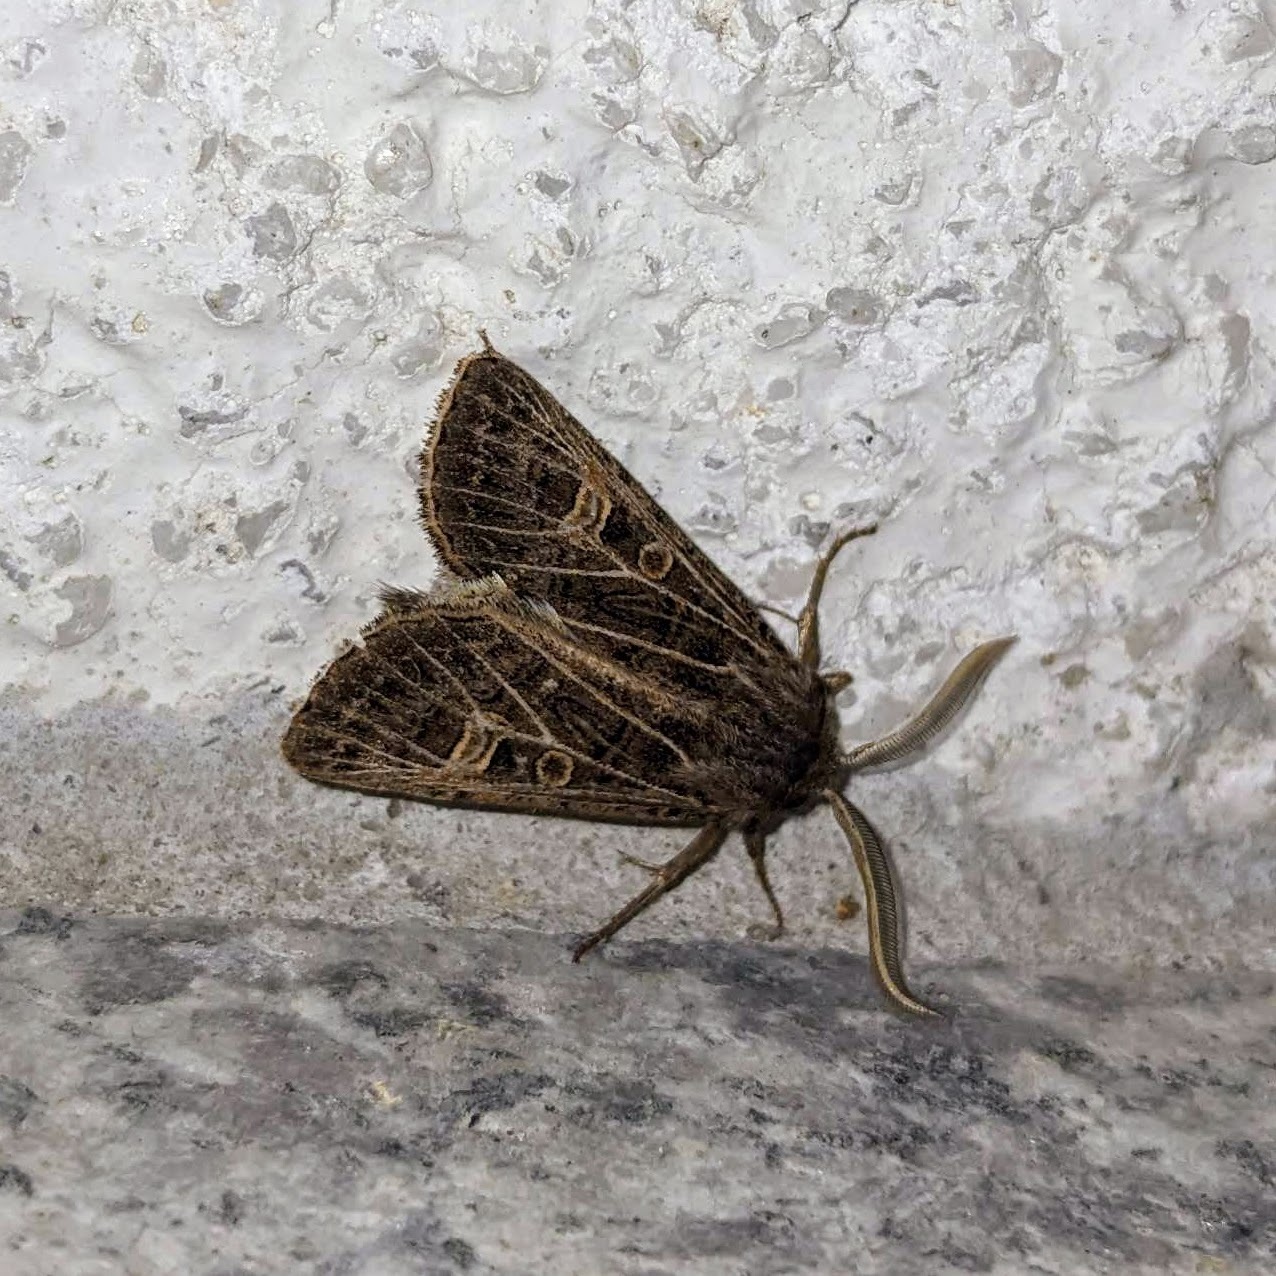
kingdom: Animalia
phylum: Arthropoda
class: Insecta
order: Lepidoptera
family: Noctuidae
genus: Tholera
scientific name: Tholera decimalis
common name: Feathered gothic
